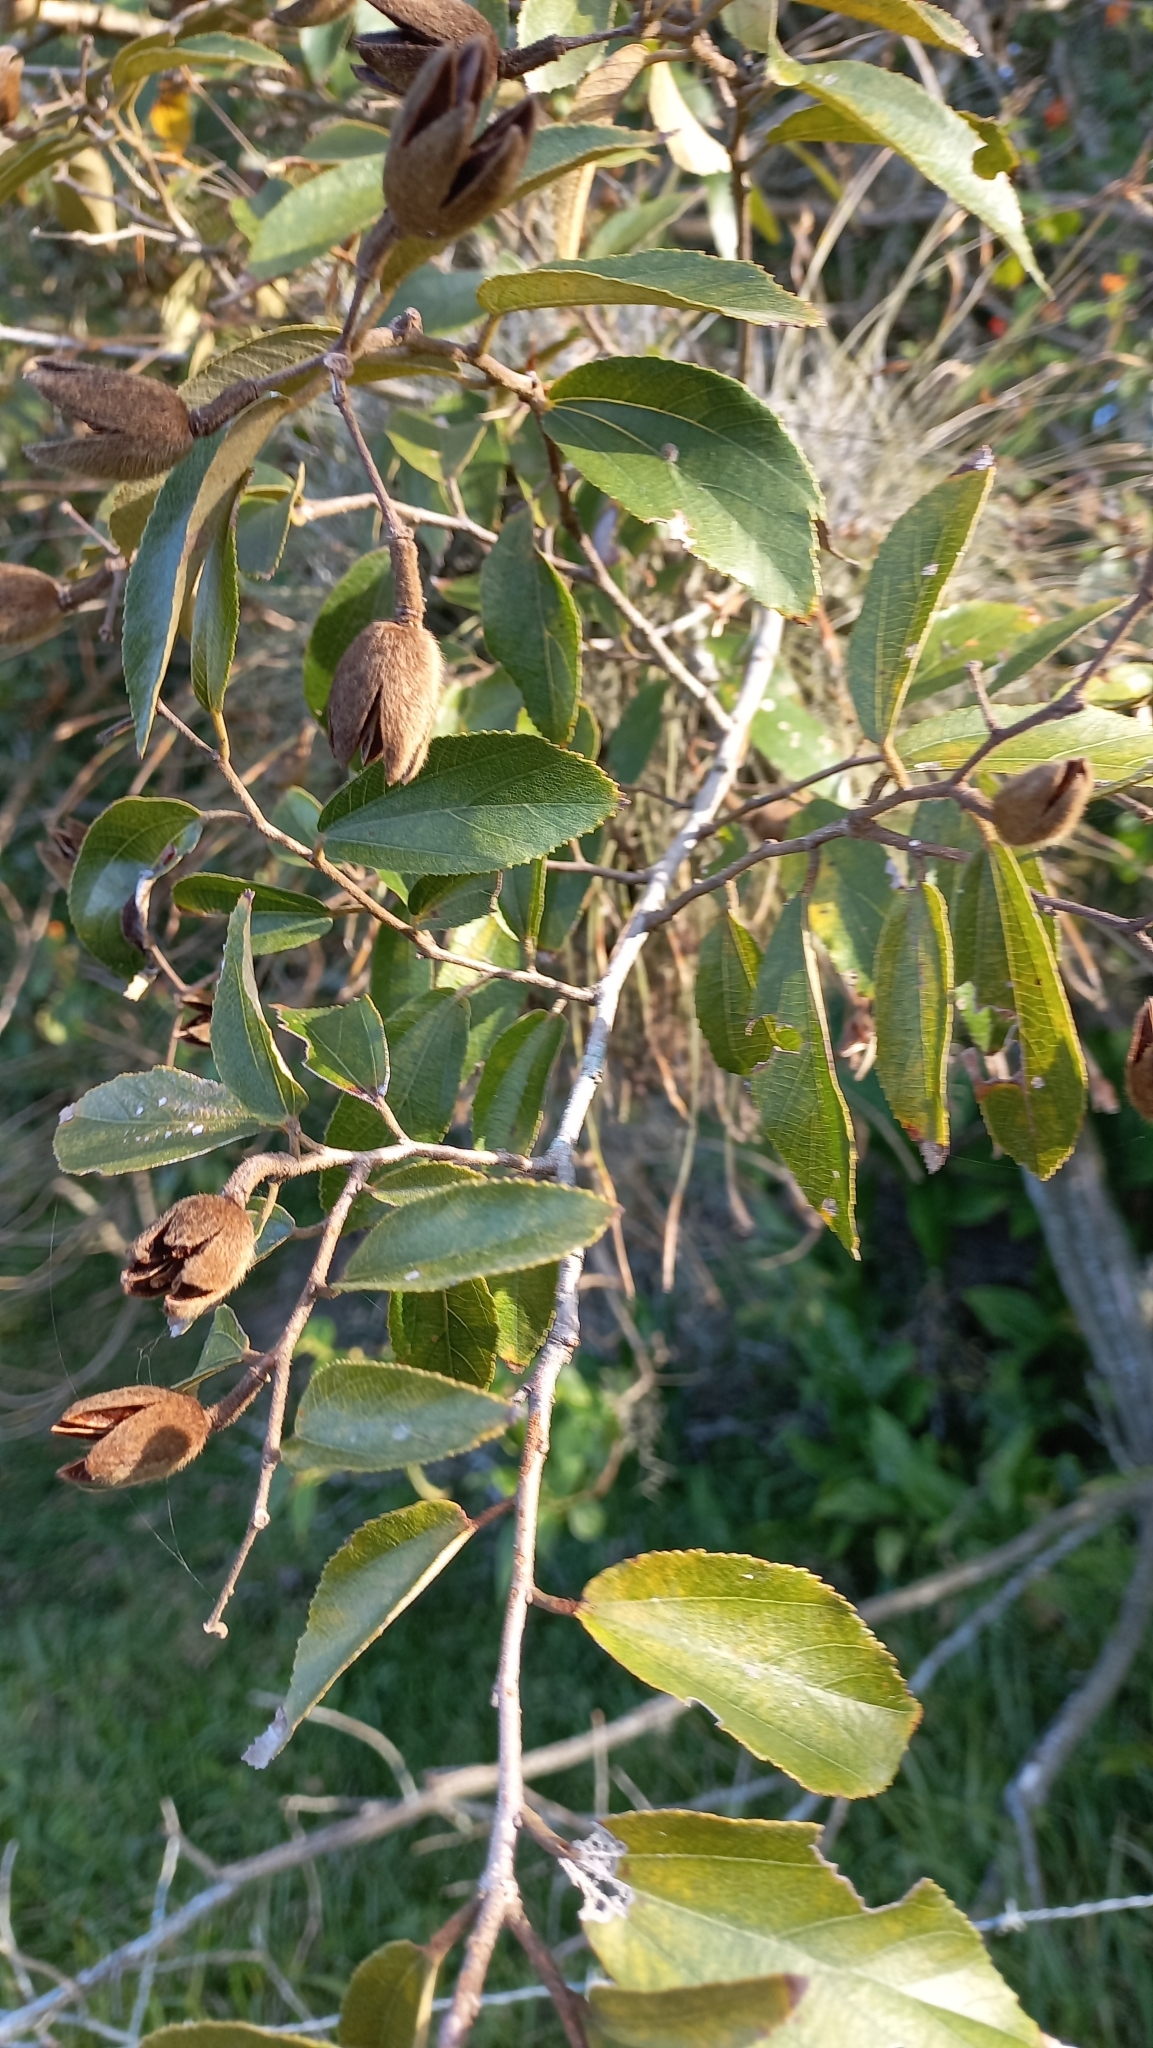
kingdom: Plantae
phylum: Tracheophyta
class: Magnoliopsida
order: Malvales
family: Malvaceae
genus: Luehea
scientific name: Luehea divaricata
